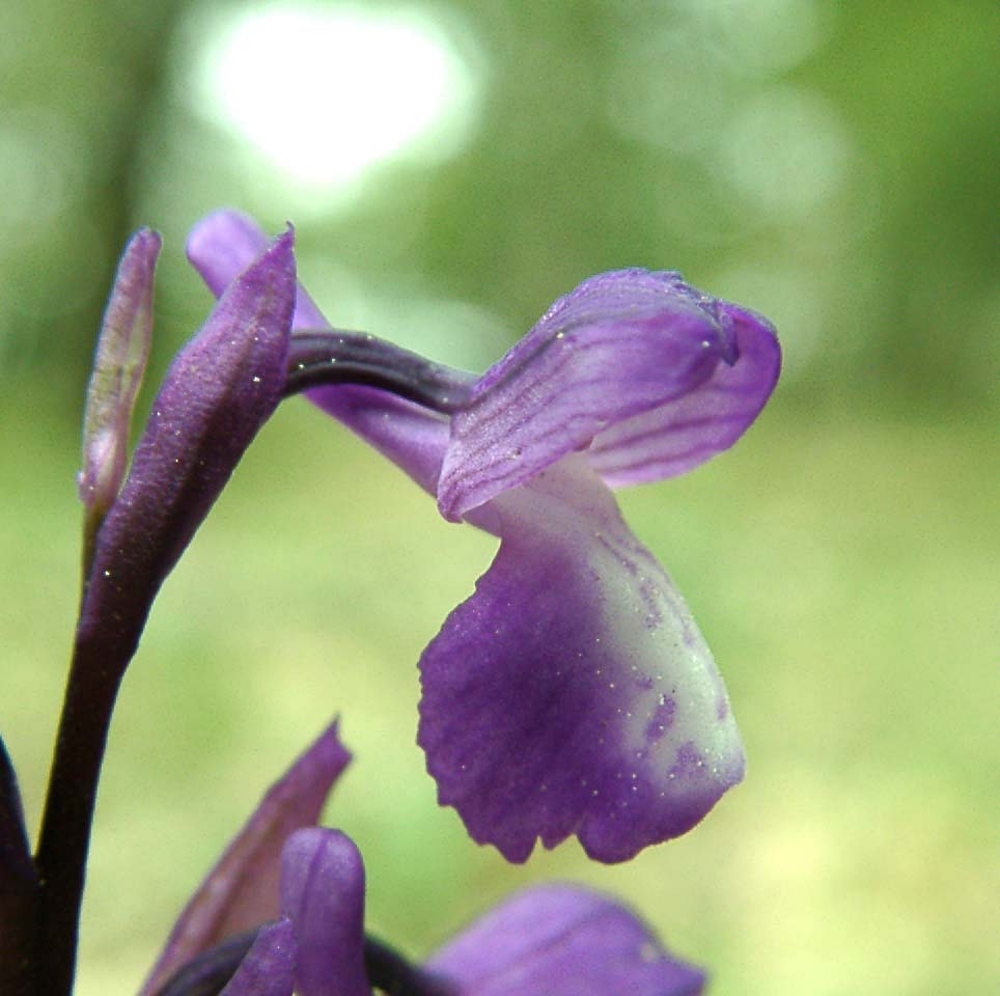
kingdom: Plantae
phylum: Tracheophyta
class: Liliopsida
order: Asparagales
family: Orchidaceae
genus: Anacamptis
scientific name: Anacamptis morio
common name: Green-winged orchid
